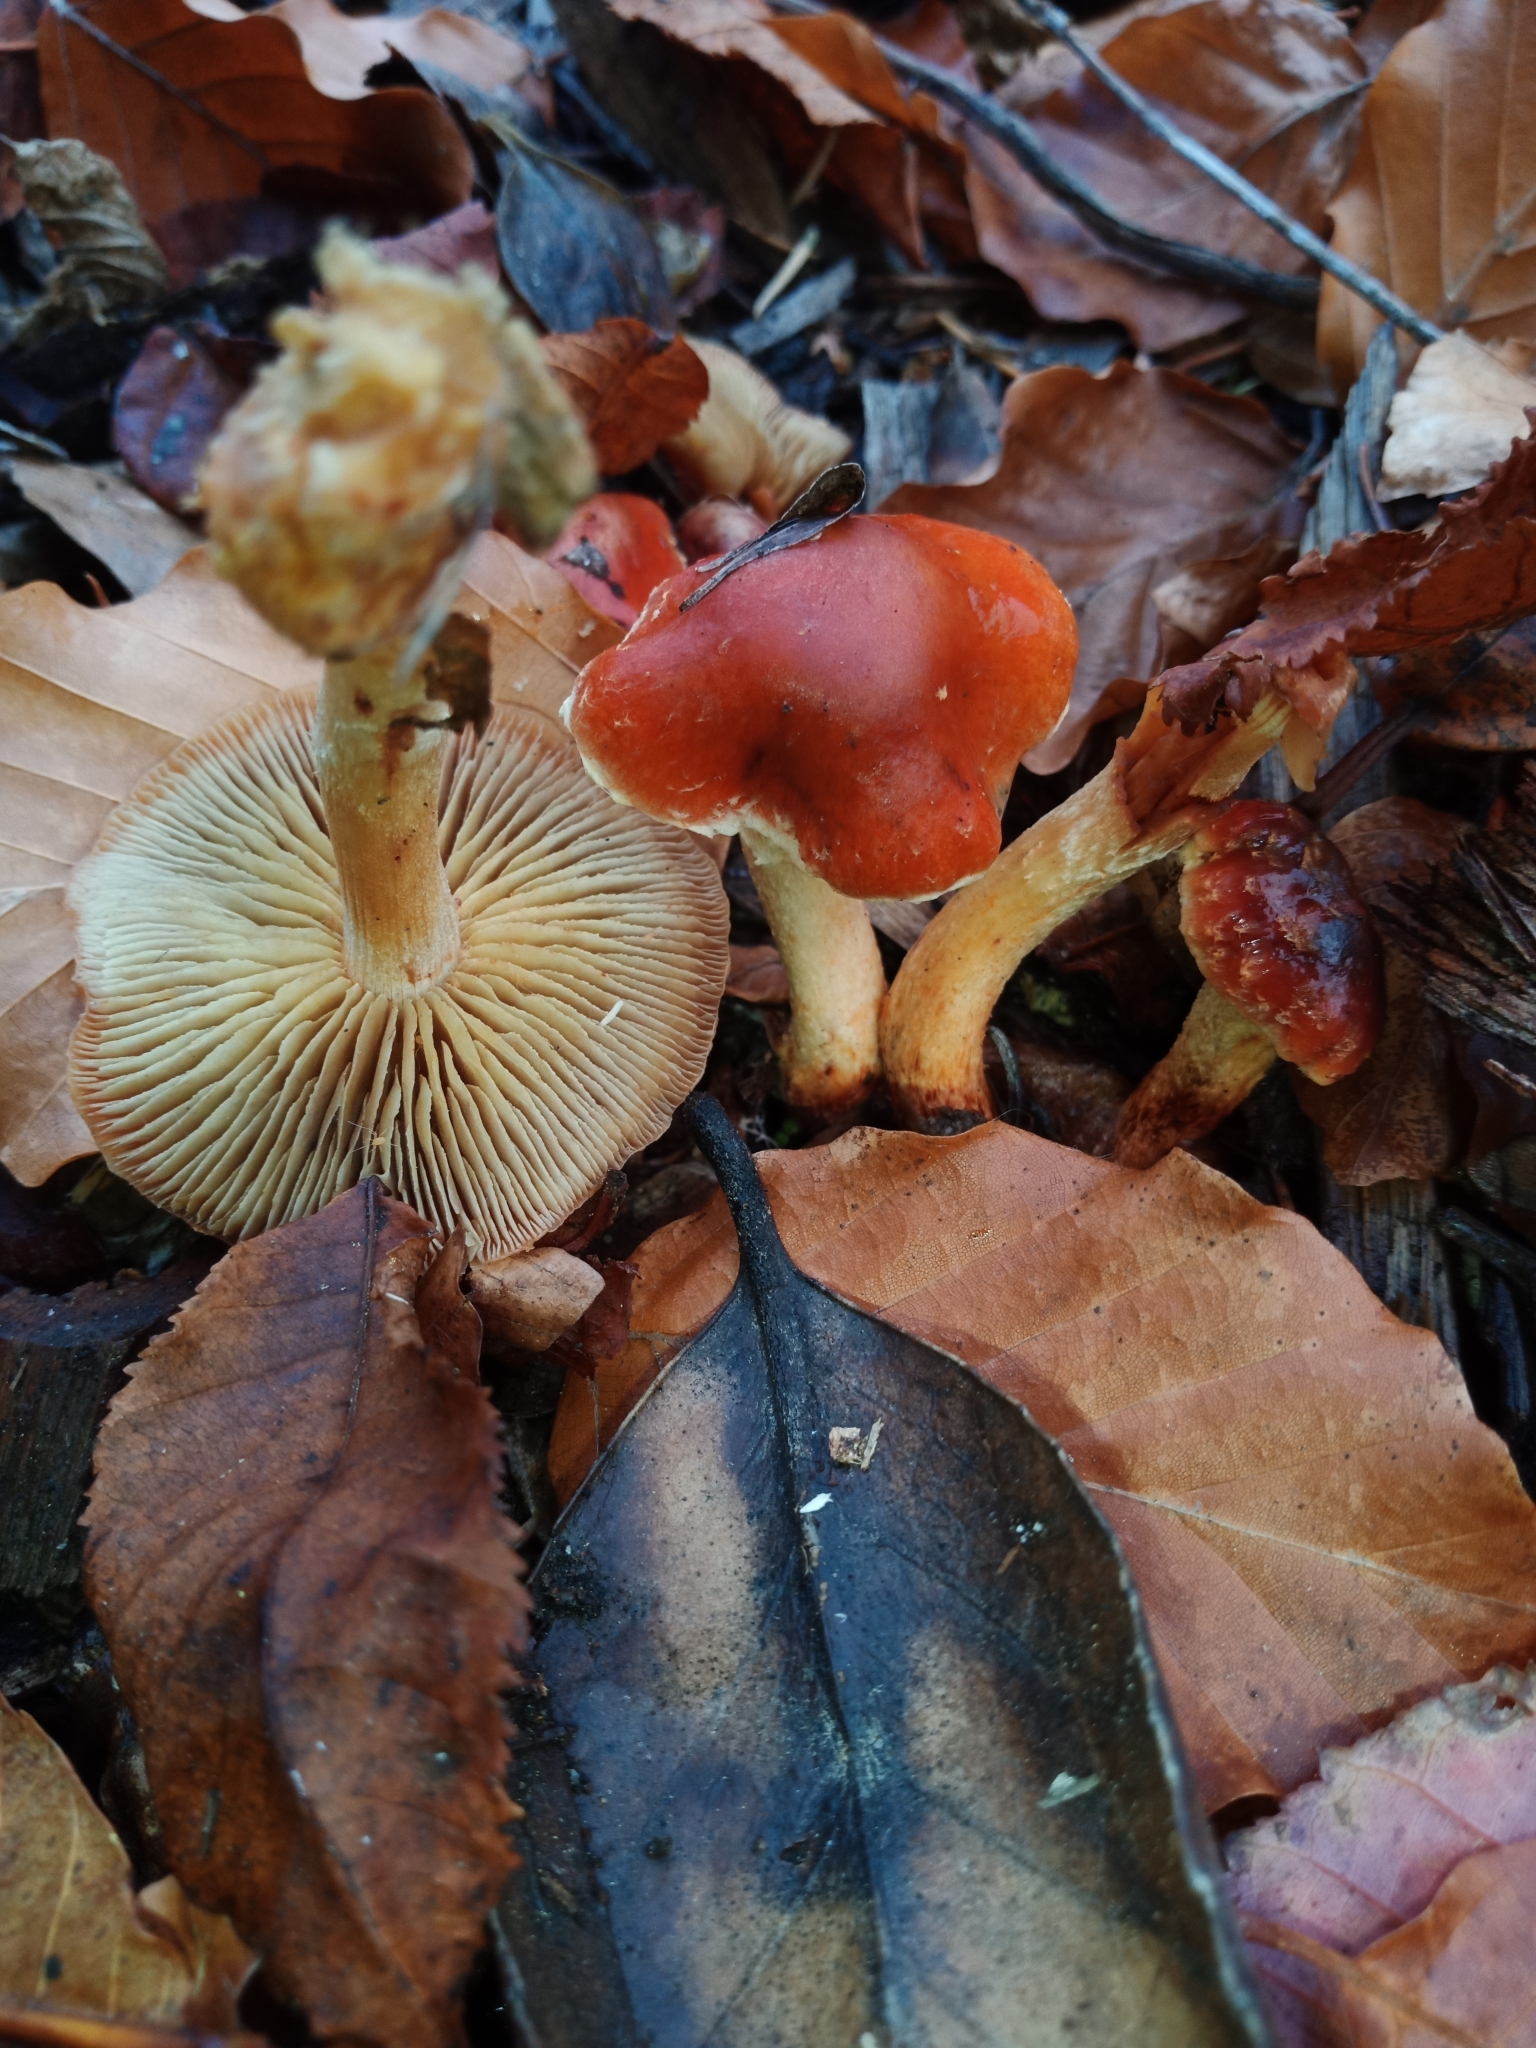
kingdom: Fungi
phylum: Basidiomycota
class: Agaricomycetes
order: Agaricales
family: Strophariaceae
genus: Leratiomyces
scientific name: Leratiomyces ceres
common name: Redlead roundhead
